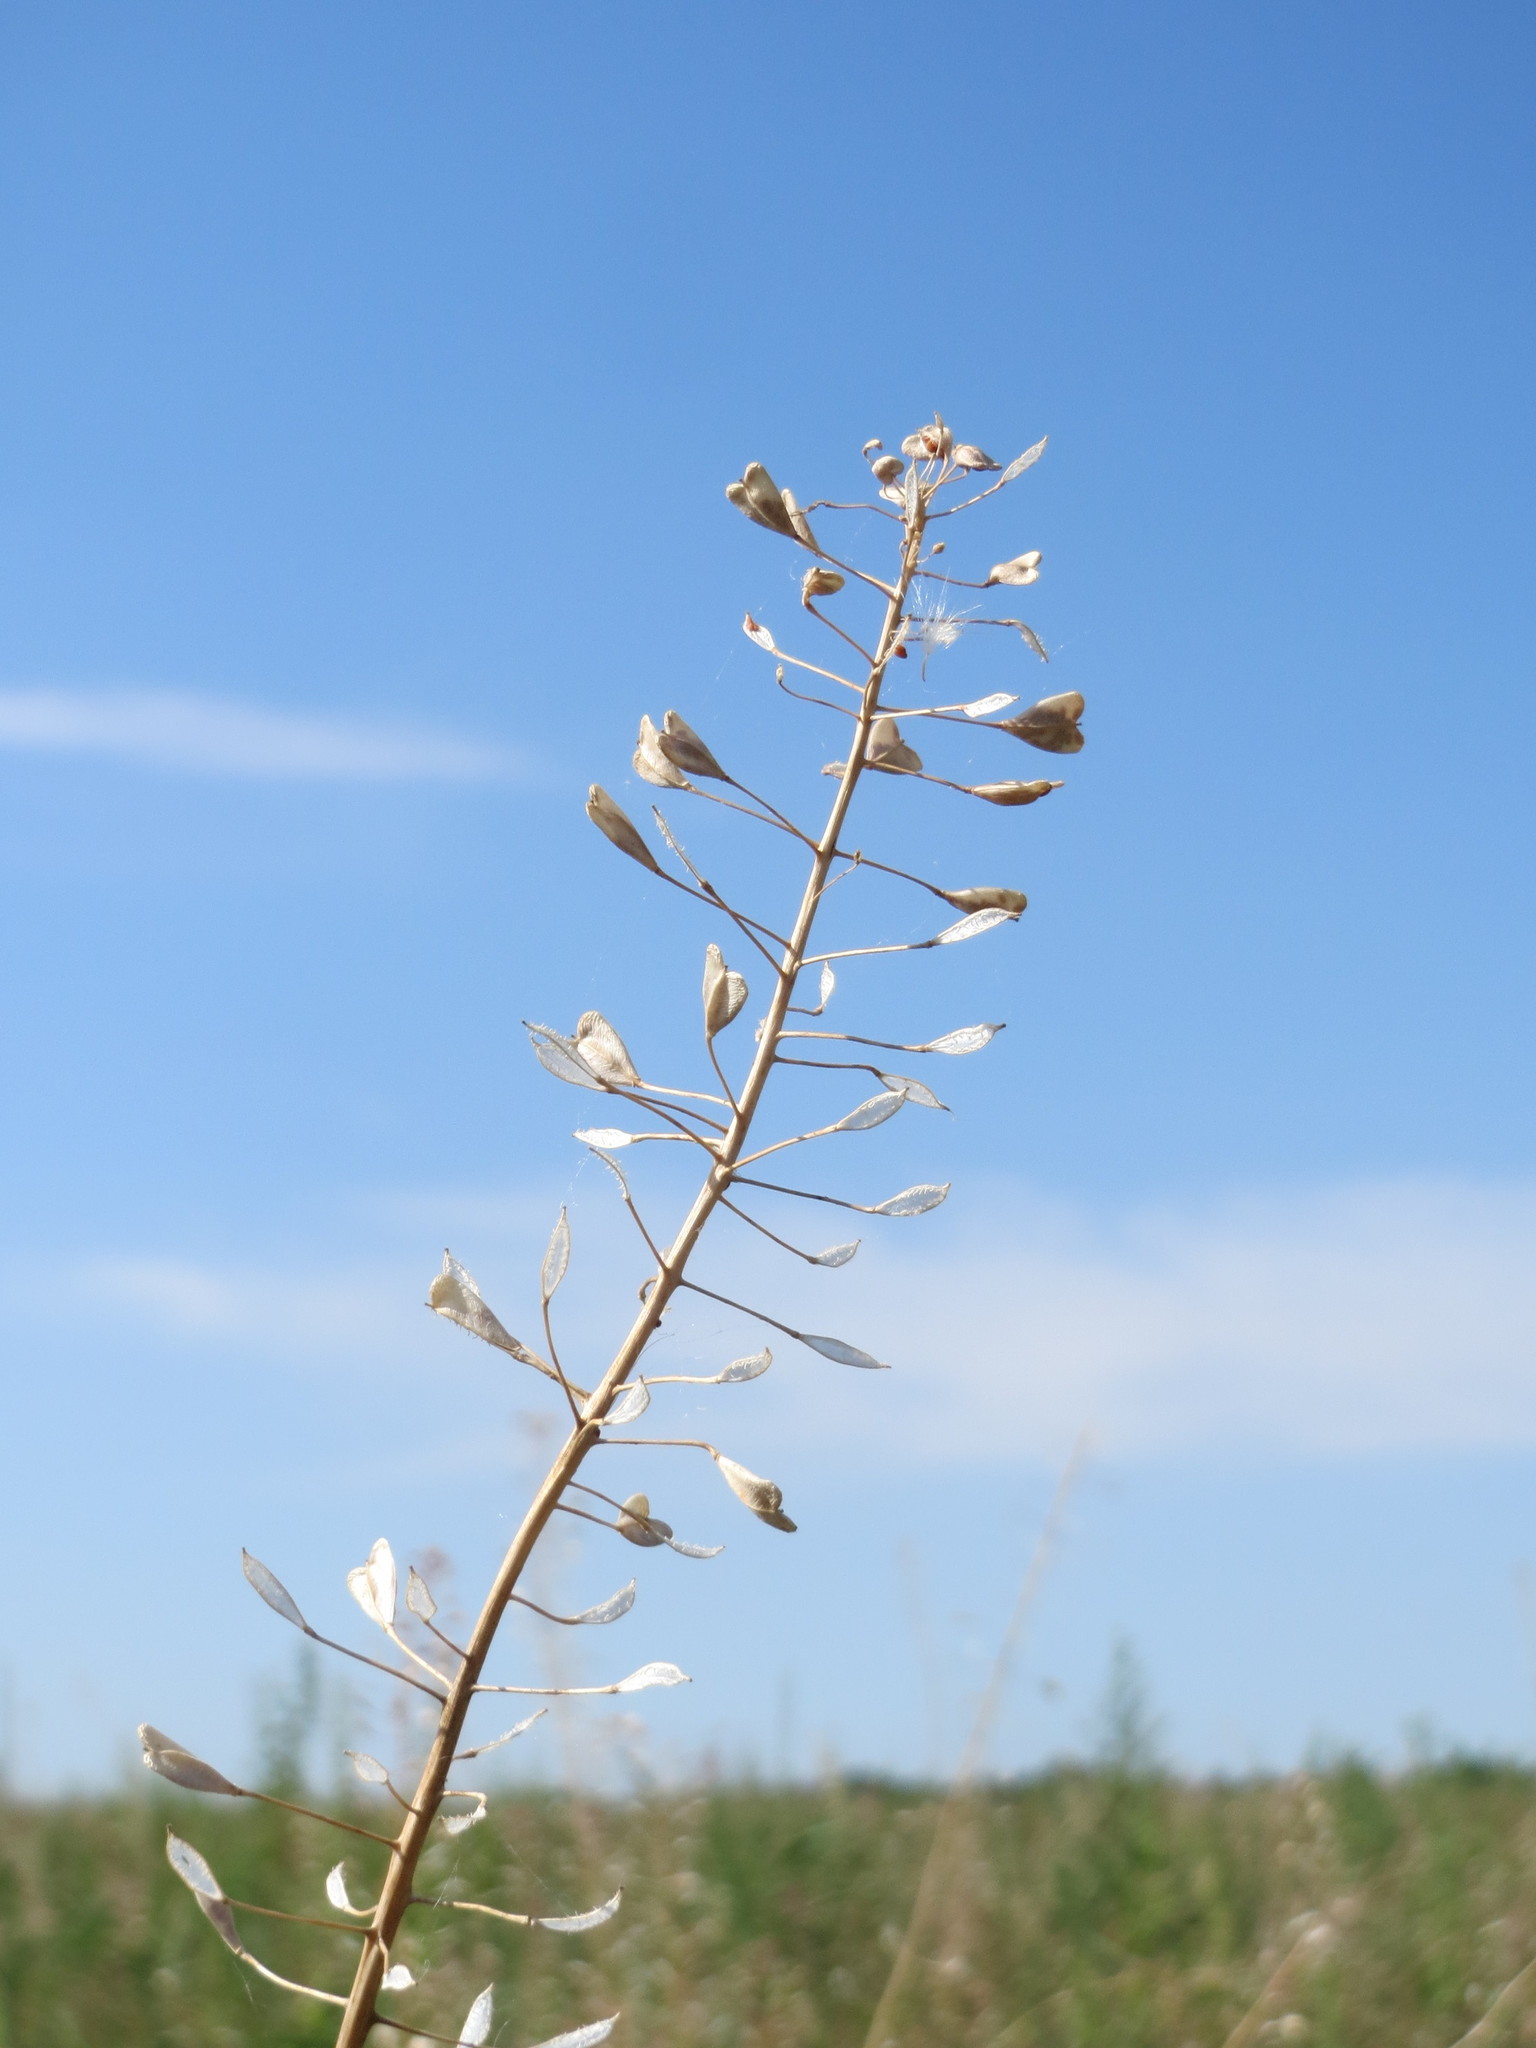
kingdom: Plantae
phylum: Tracheophyta
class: Magnoliopsida
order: Brassicales
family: Brassicaceae
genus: Capsella
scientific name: Capsella bursa-pastoris
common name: Shepherd's purse
